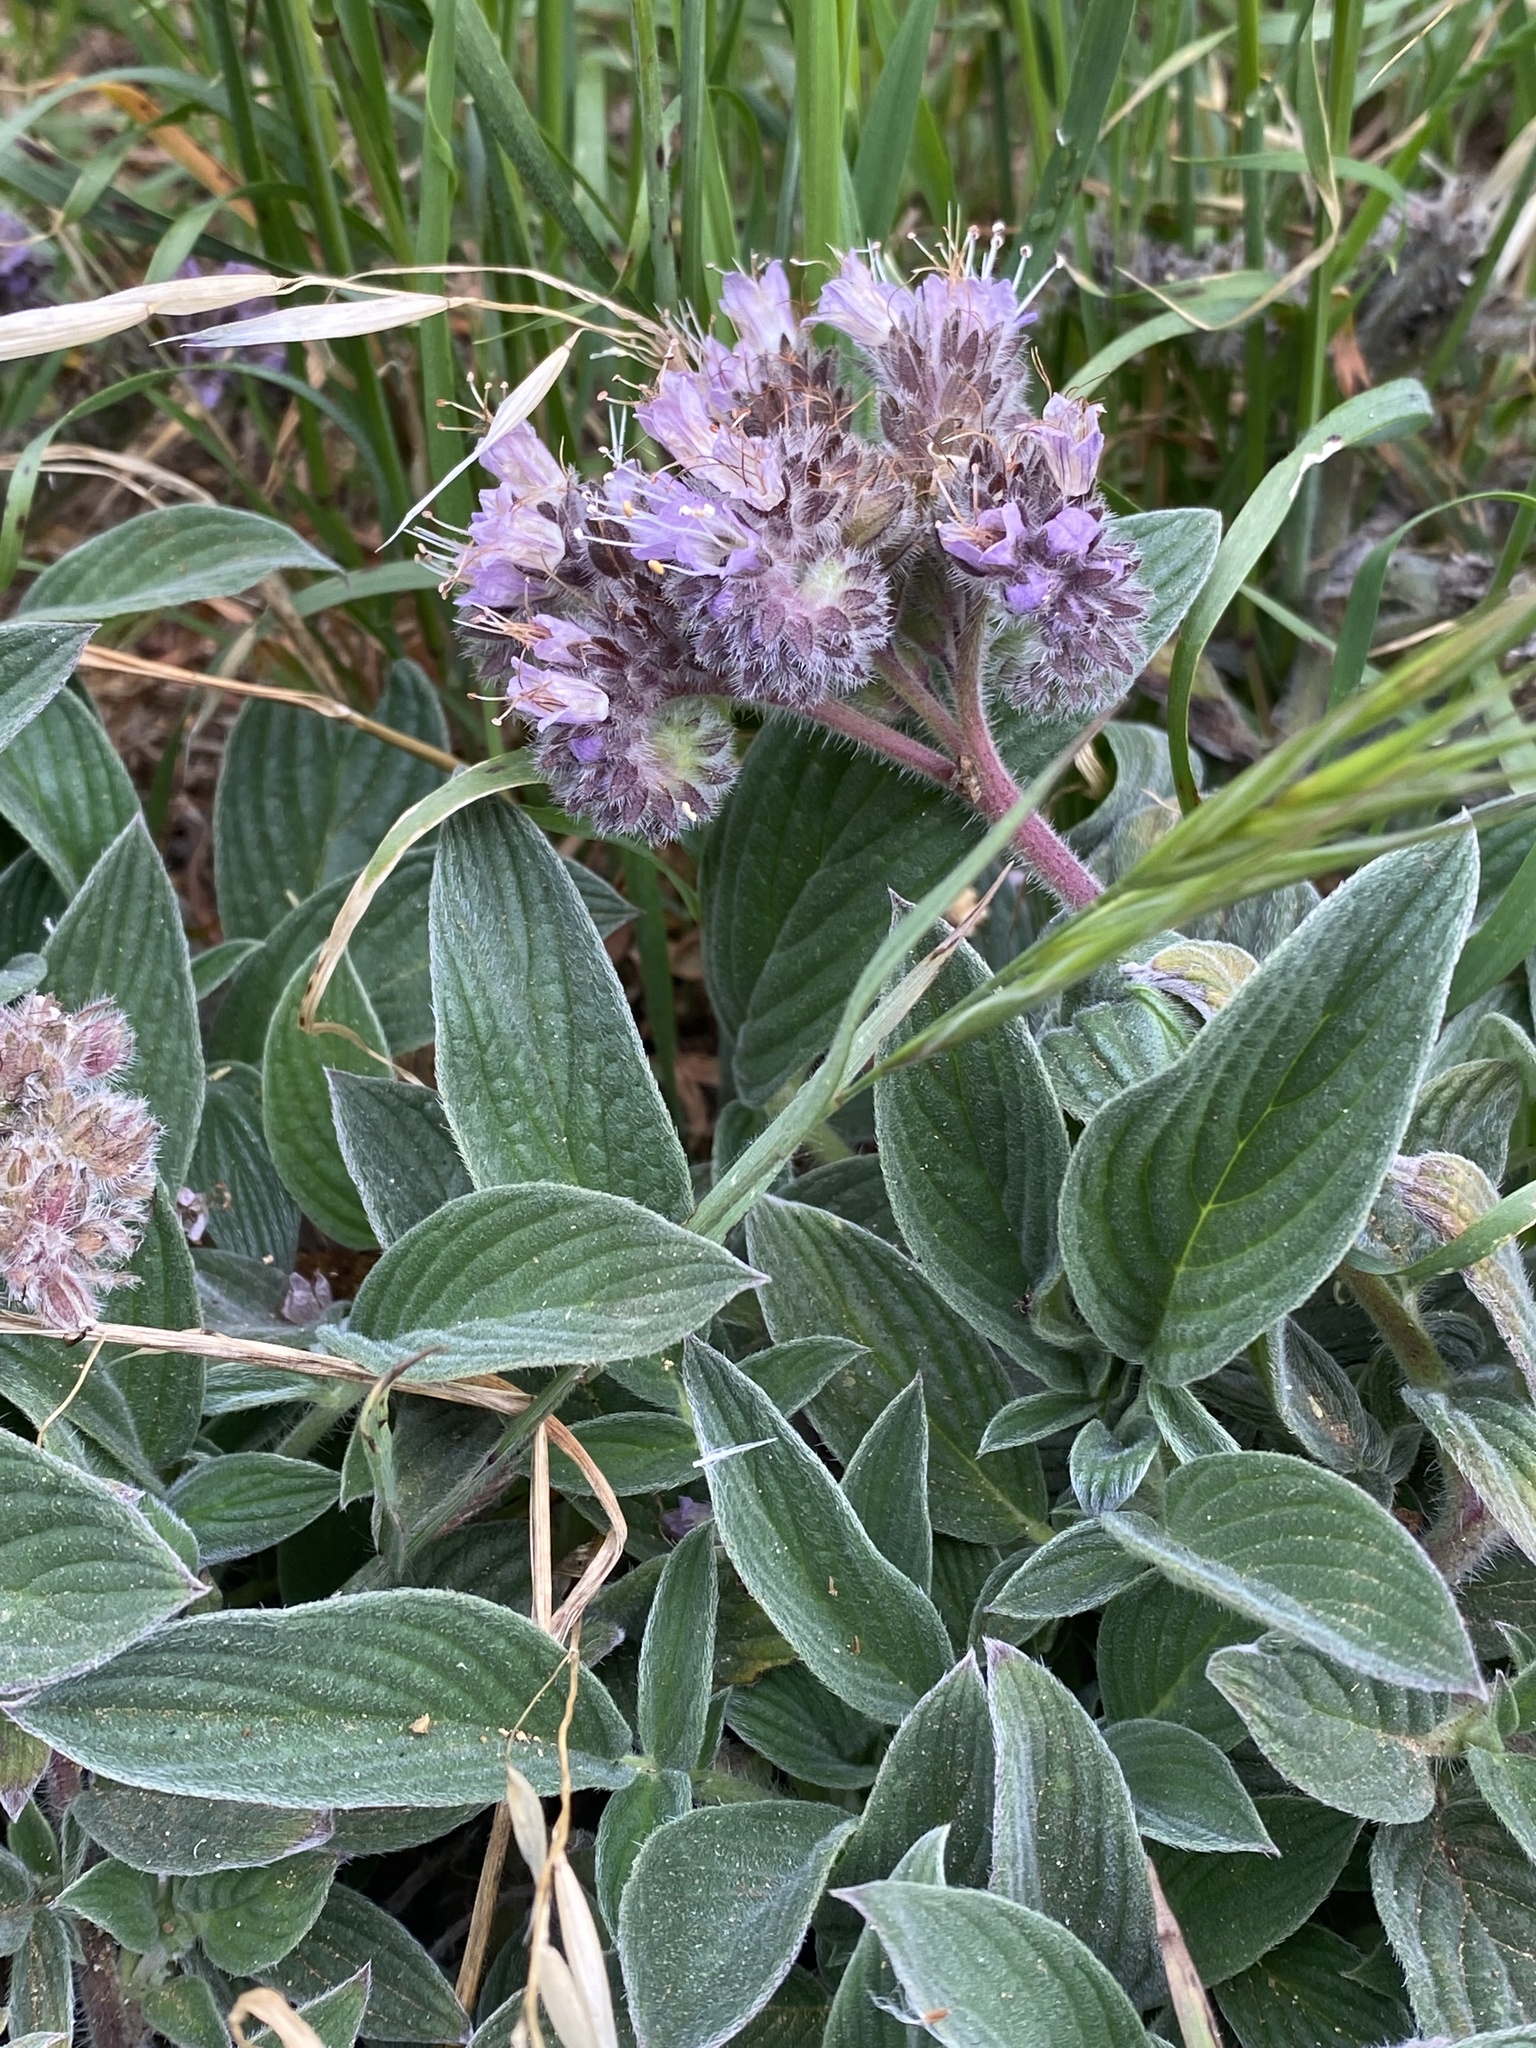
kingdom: Plantae
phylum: Tracheophyta
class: Magnoliopsida
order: Boraginales
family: Hydrophyllaceae
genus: Phacelia
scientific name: Phacelia californica
